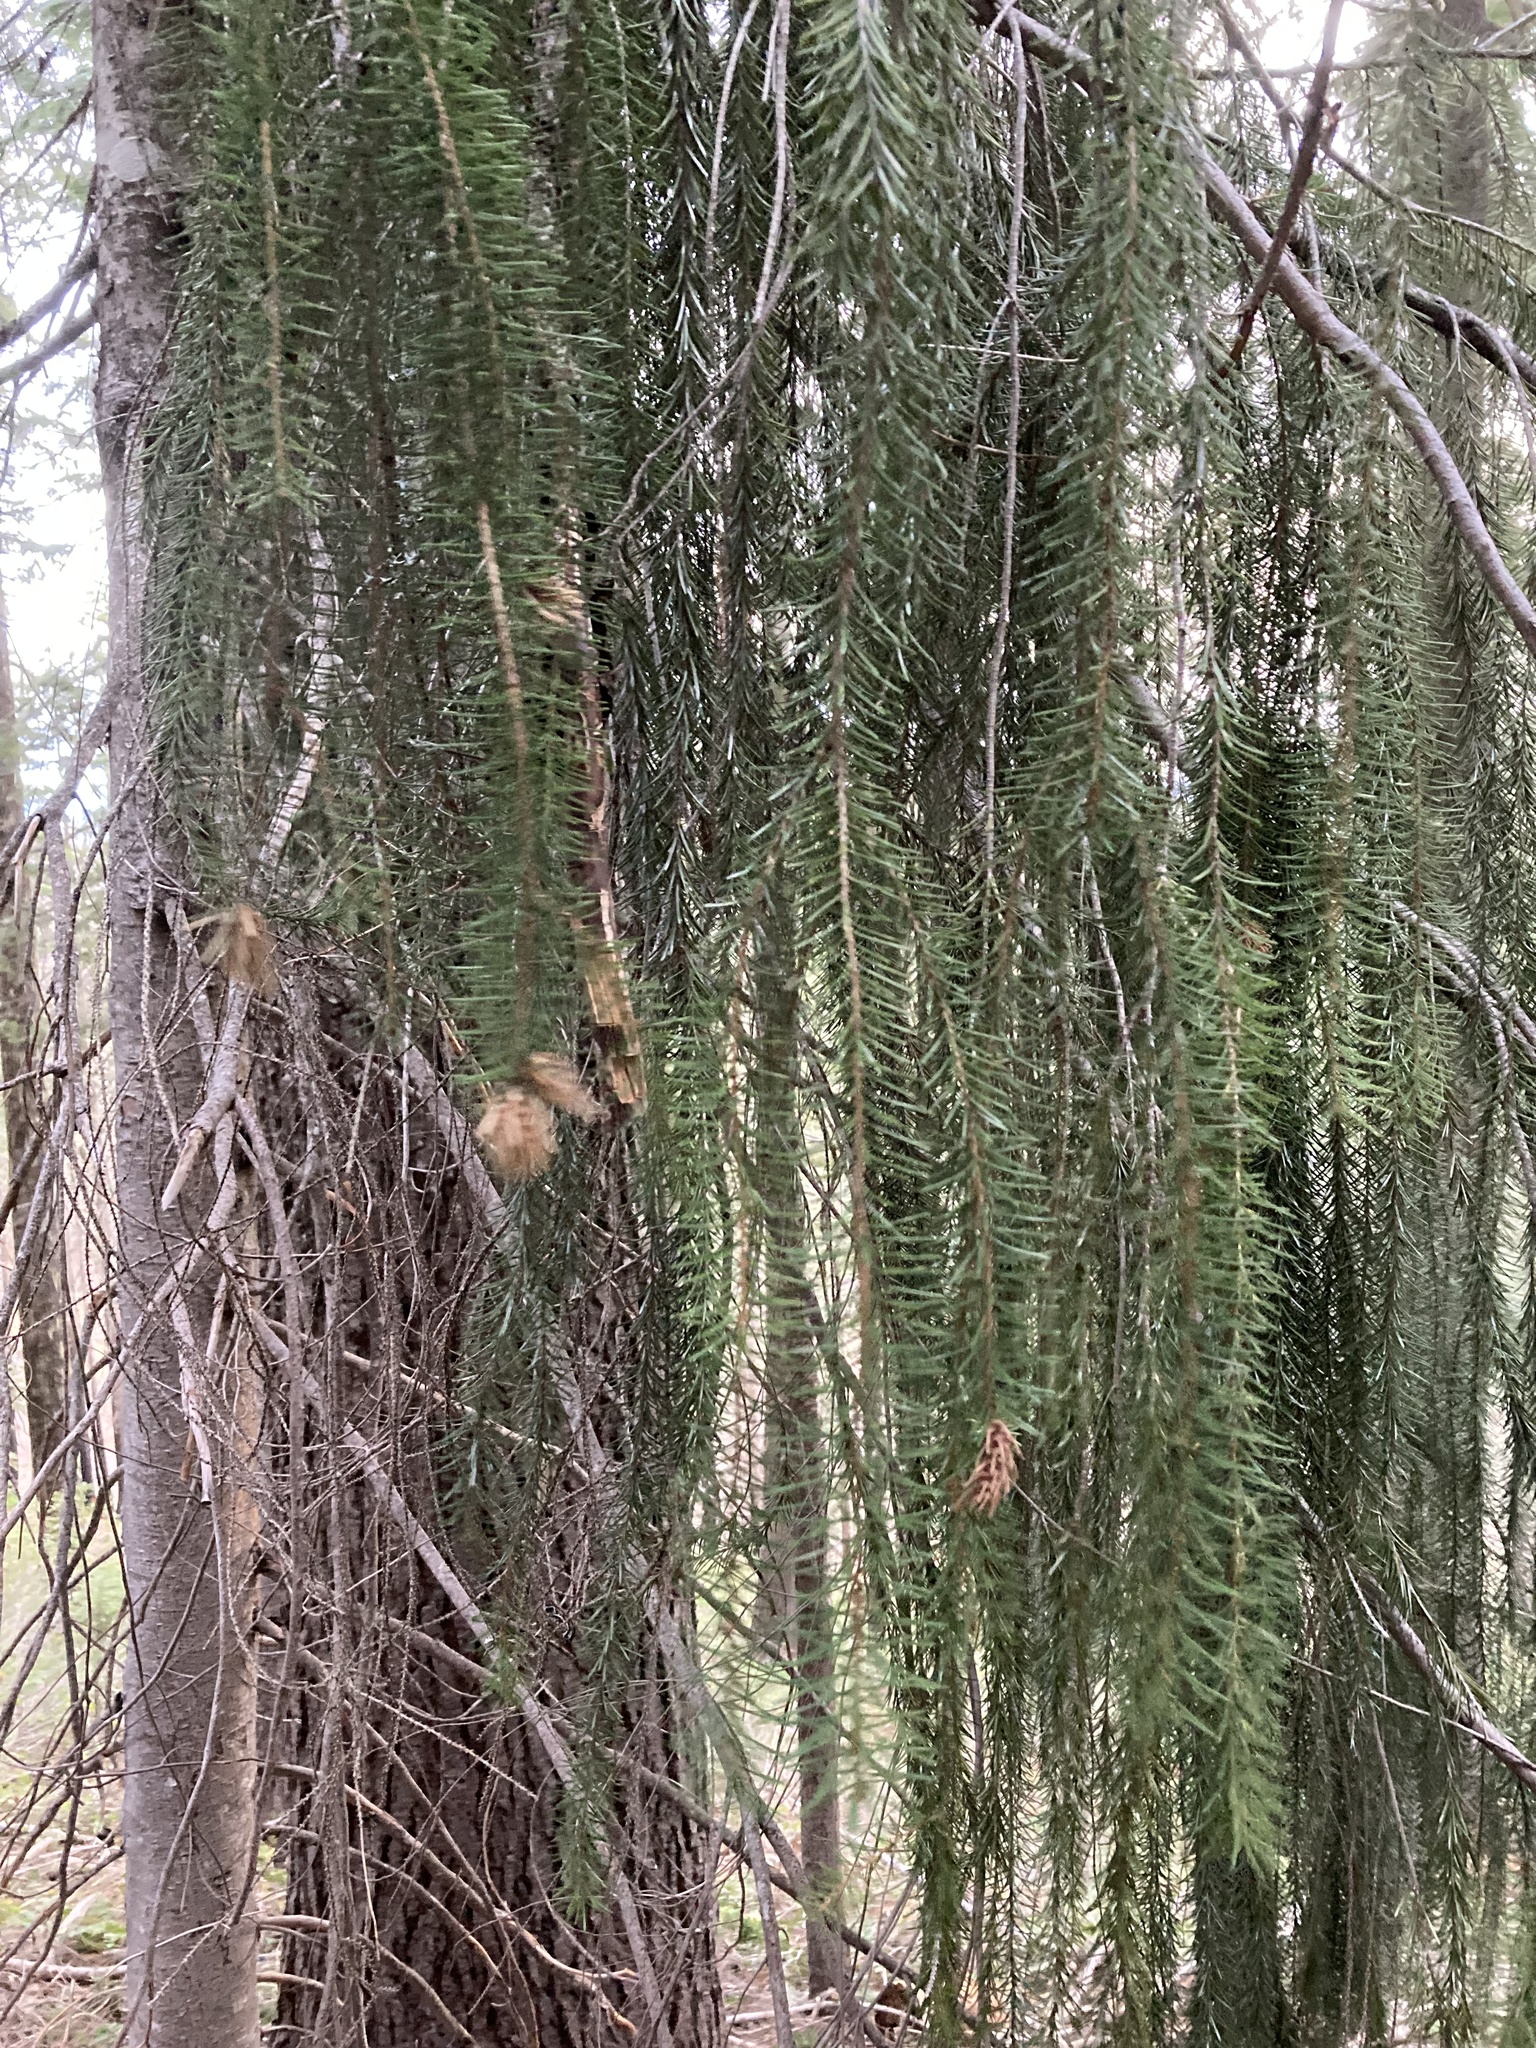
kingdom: Plantae
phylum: Tracheophyta
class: Pinopsida
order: Pinales
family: Pinaceae
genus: Picea
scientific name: Picea breweriana
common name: Brewer's spruce
